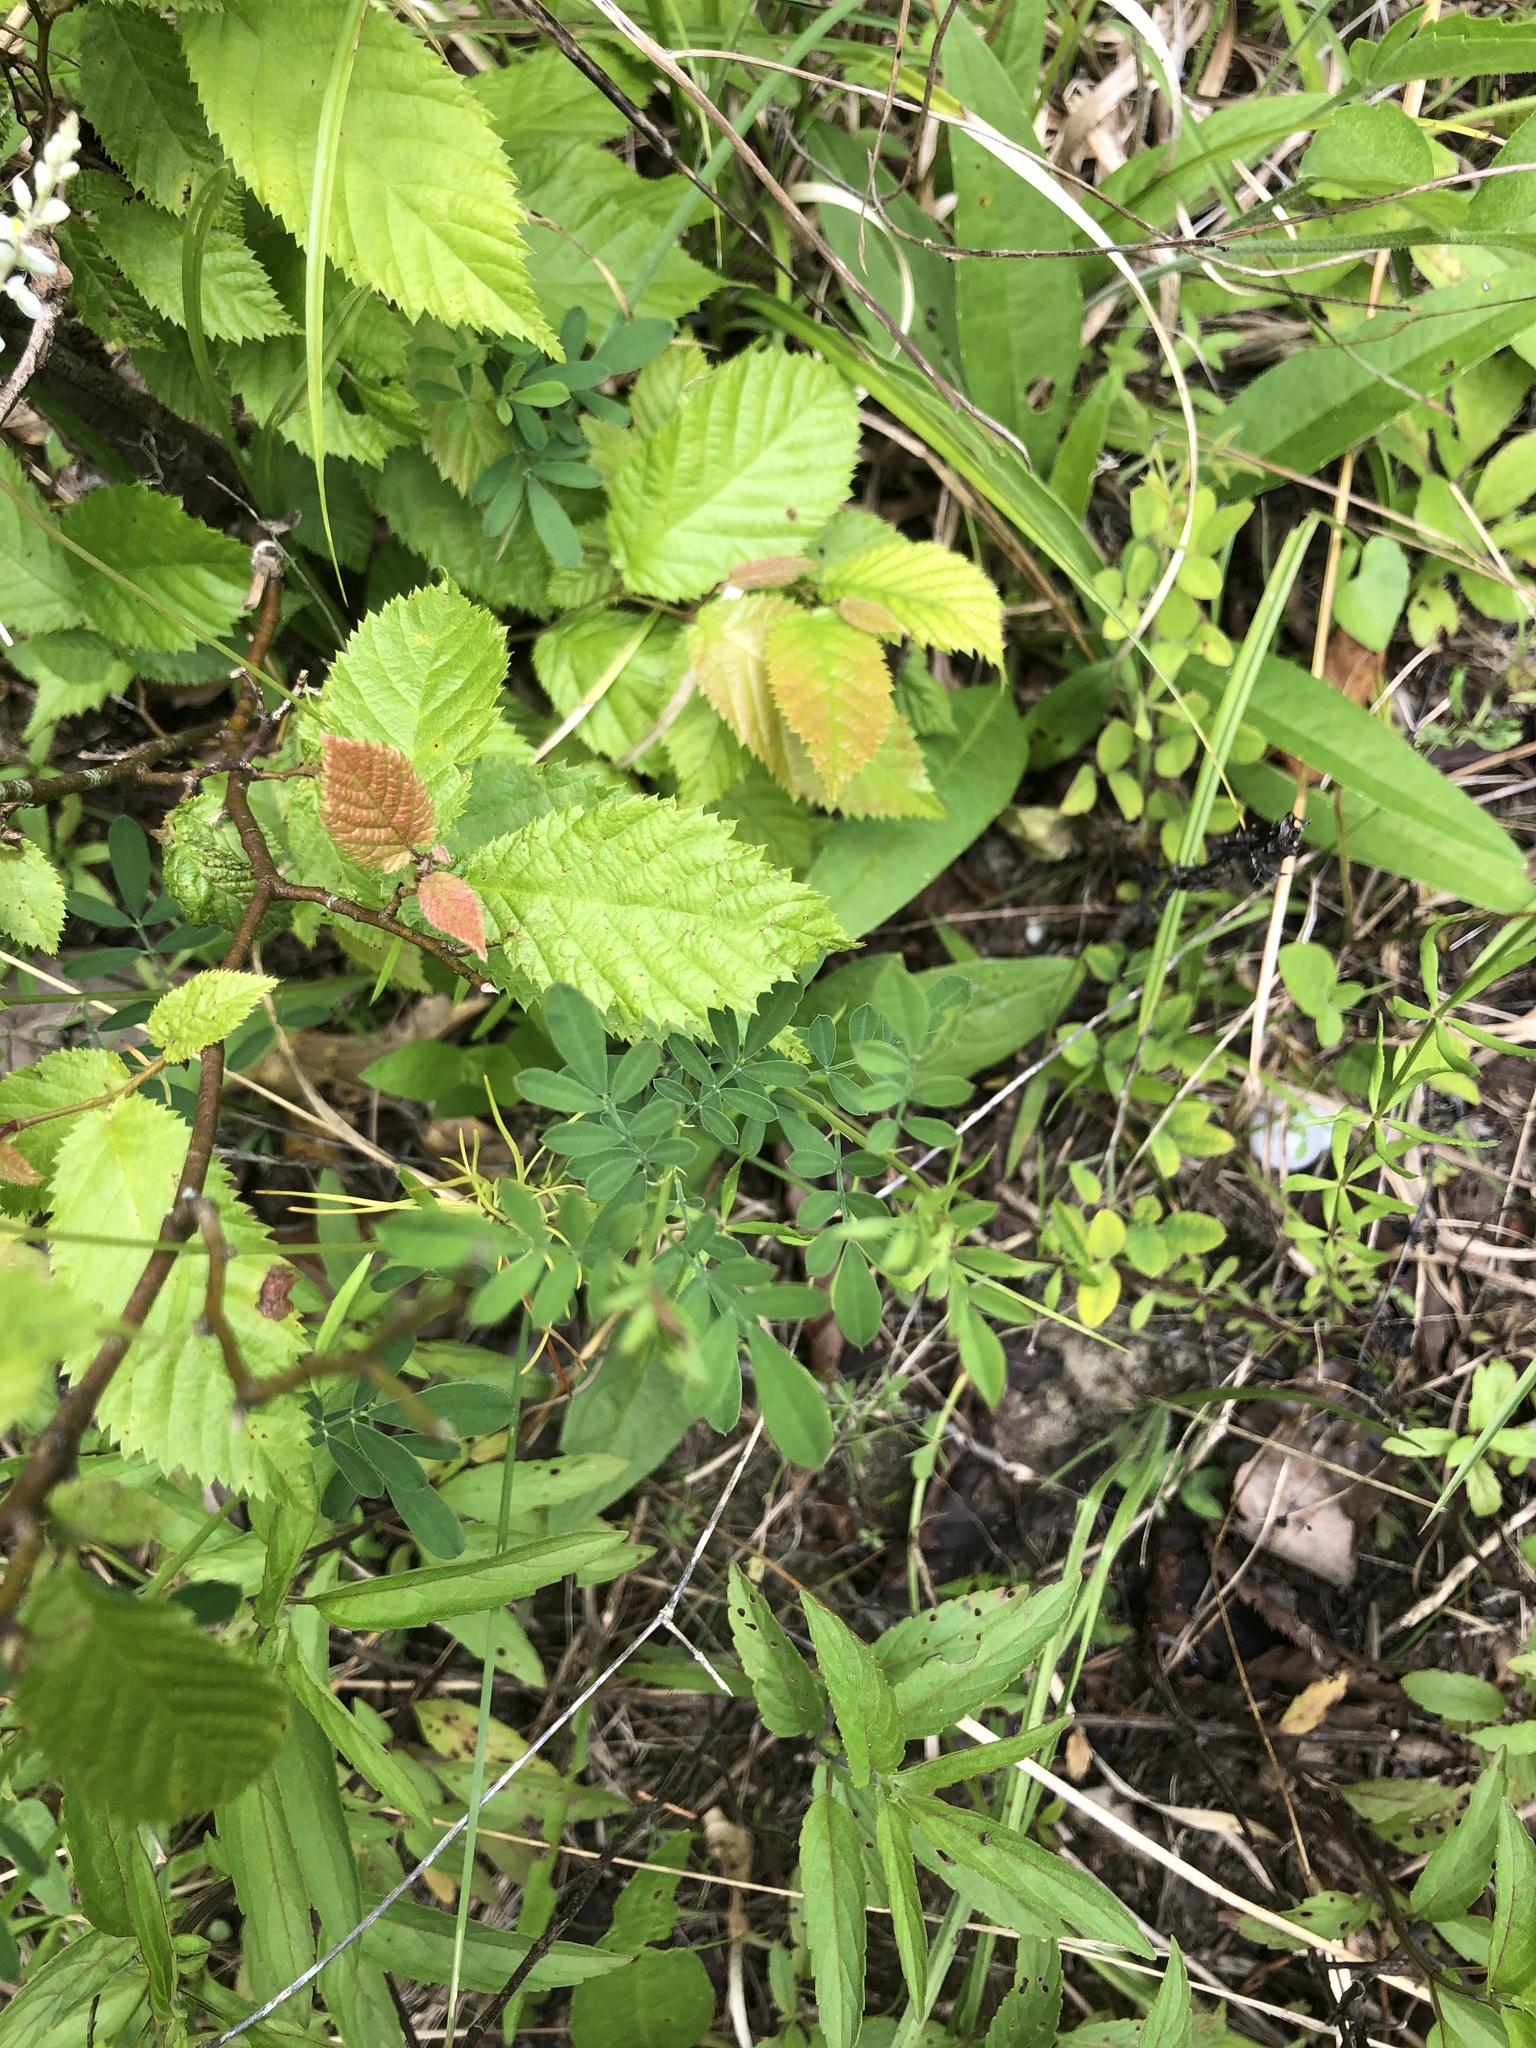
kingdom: Plantae
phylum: Tracheophyta
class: Magnoliopsida
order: Fabales
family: Fabaceae
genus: Dalea
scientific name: Dalea candida
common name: White prairie-clover
